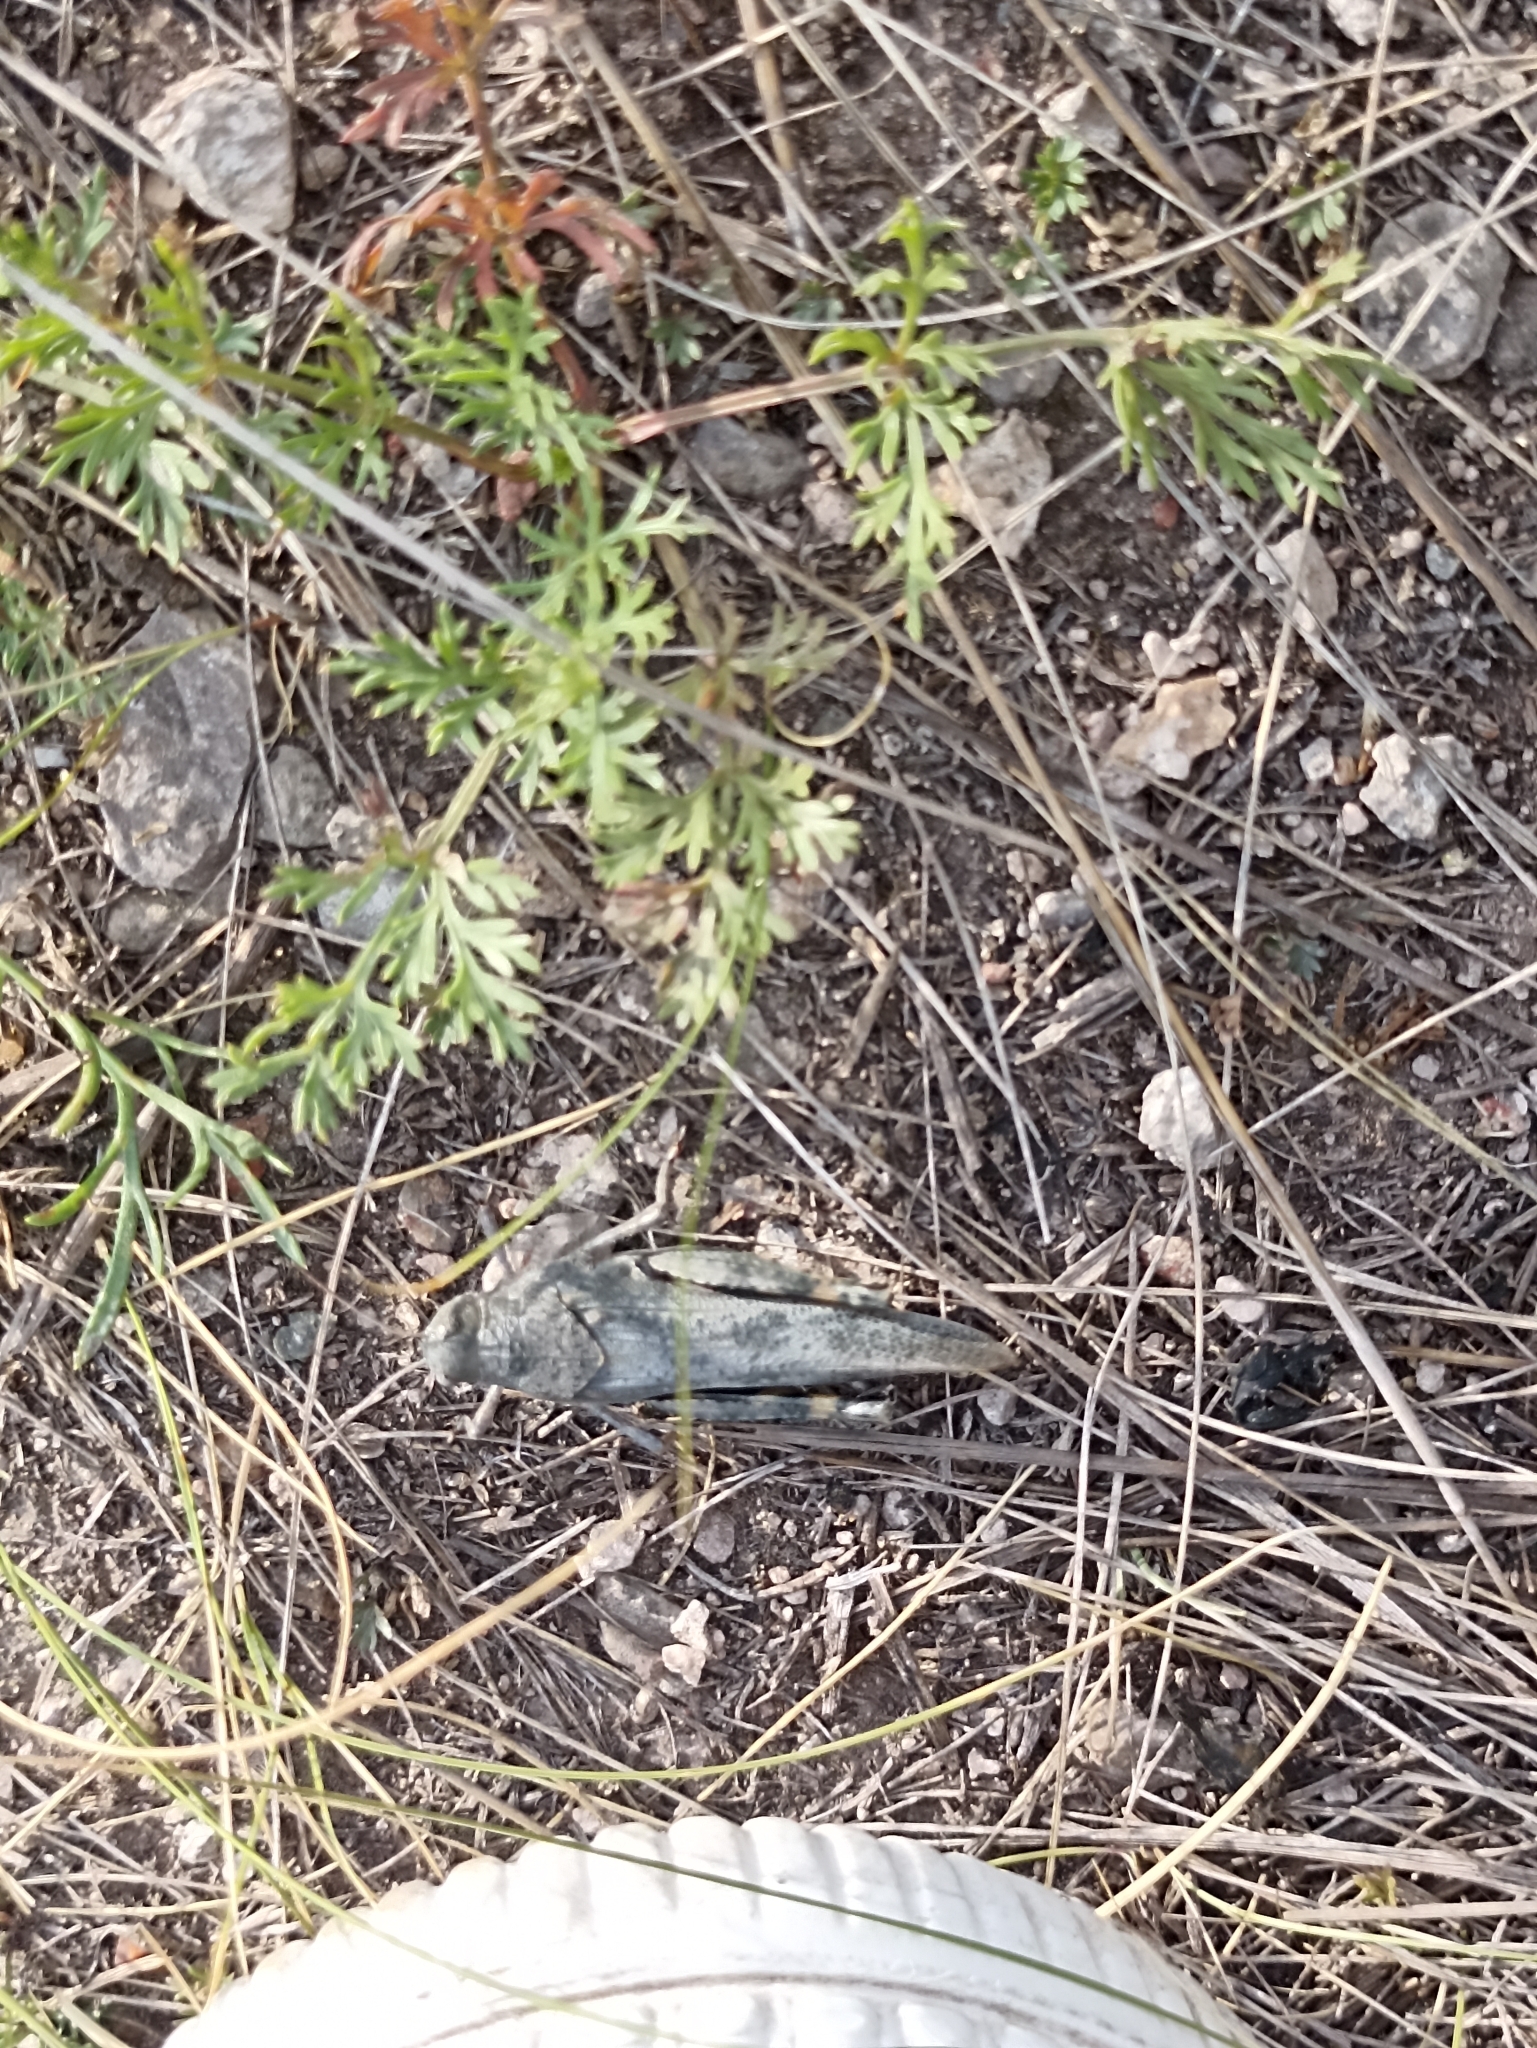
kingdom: Animalia
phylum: Arthropoda
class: Insecta
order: Orthoptera
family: Acrididae
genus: Bryodemella
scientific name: Bryodemella tuberculata
